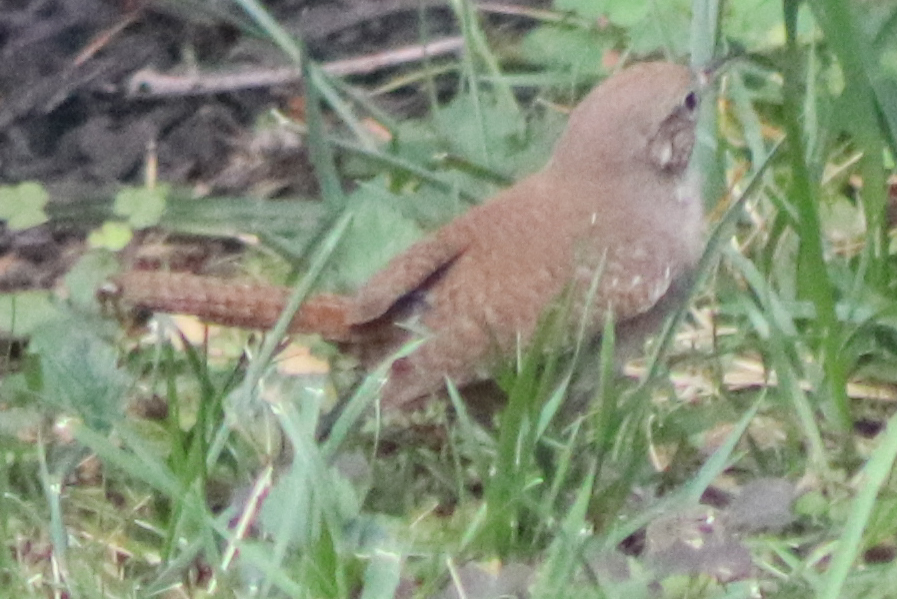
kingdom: Animalia
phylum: Chordata
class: Aves
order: Passeriformes
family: Troglodytidae
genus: Troglodytes
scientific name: Troglodytes aedon
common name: House wren
